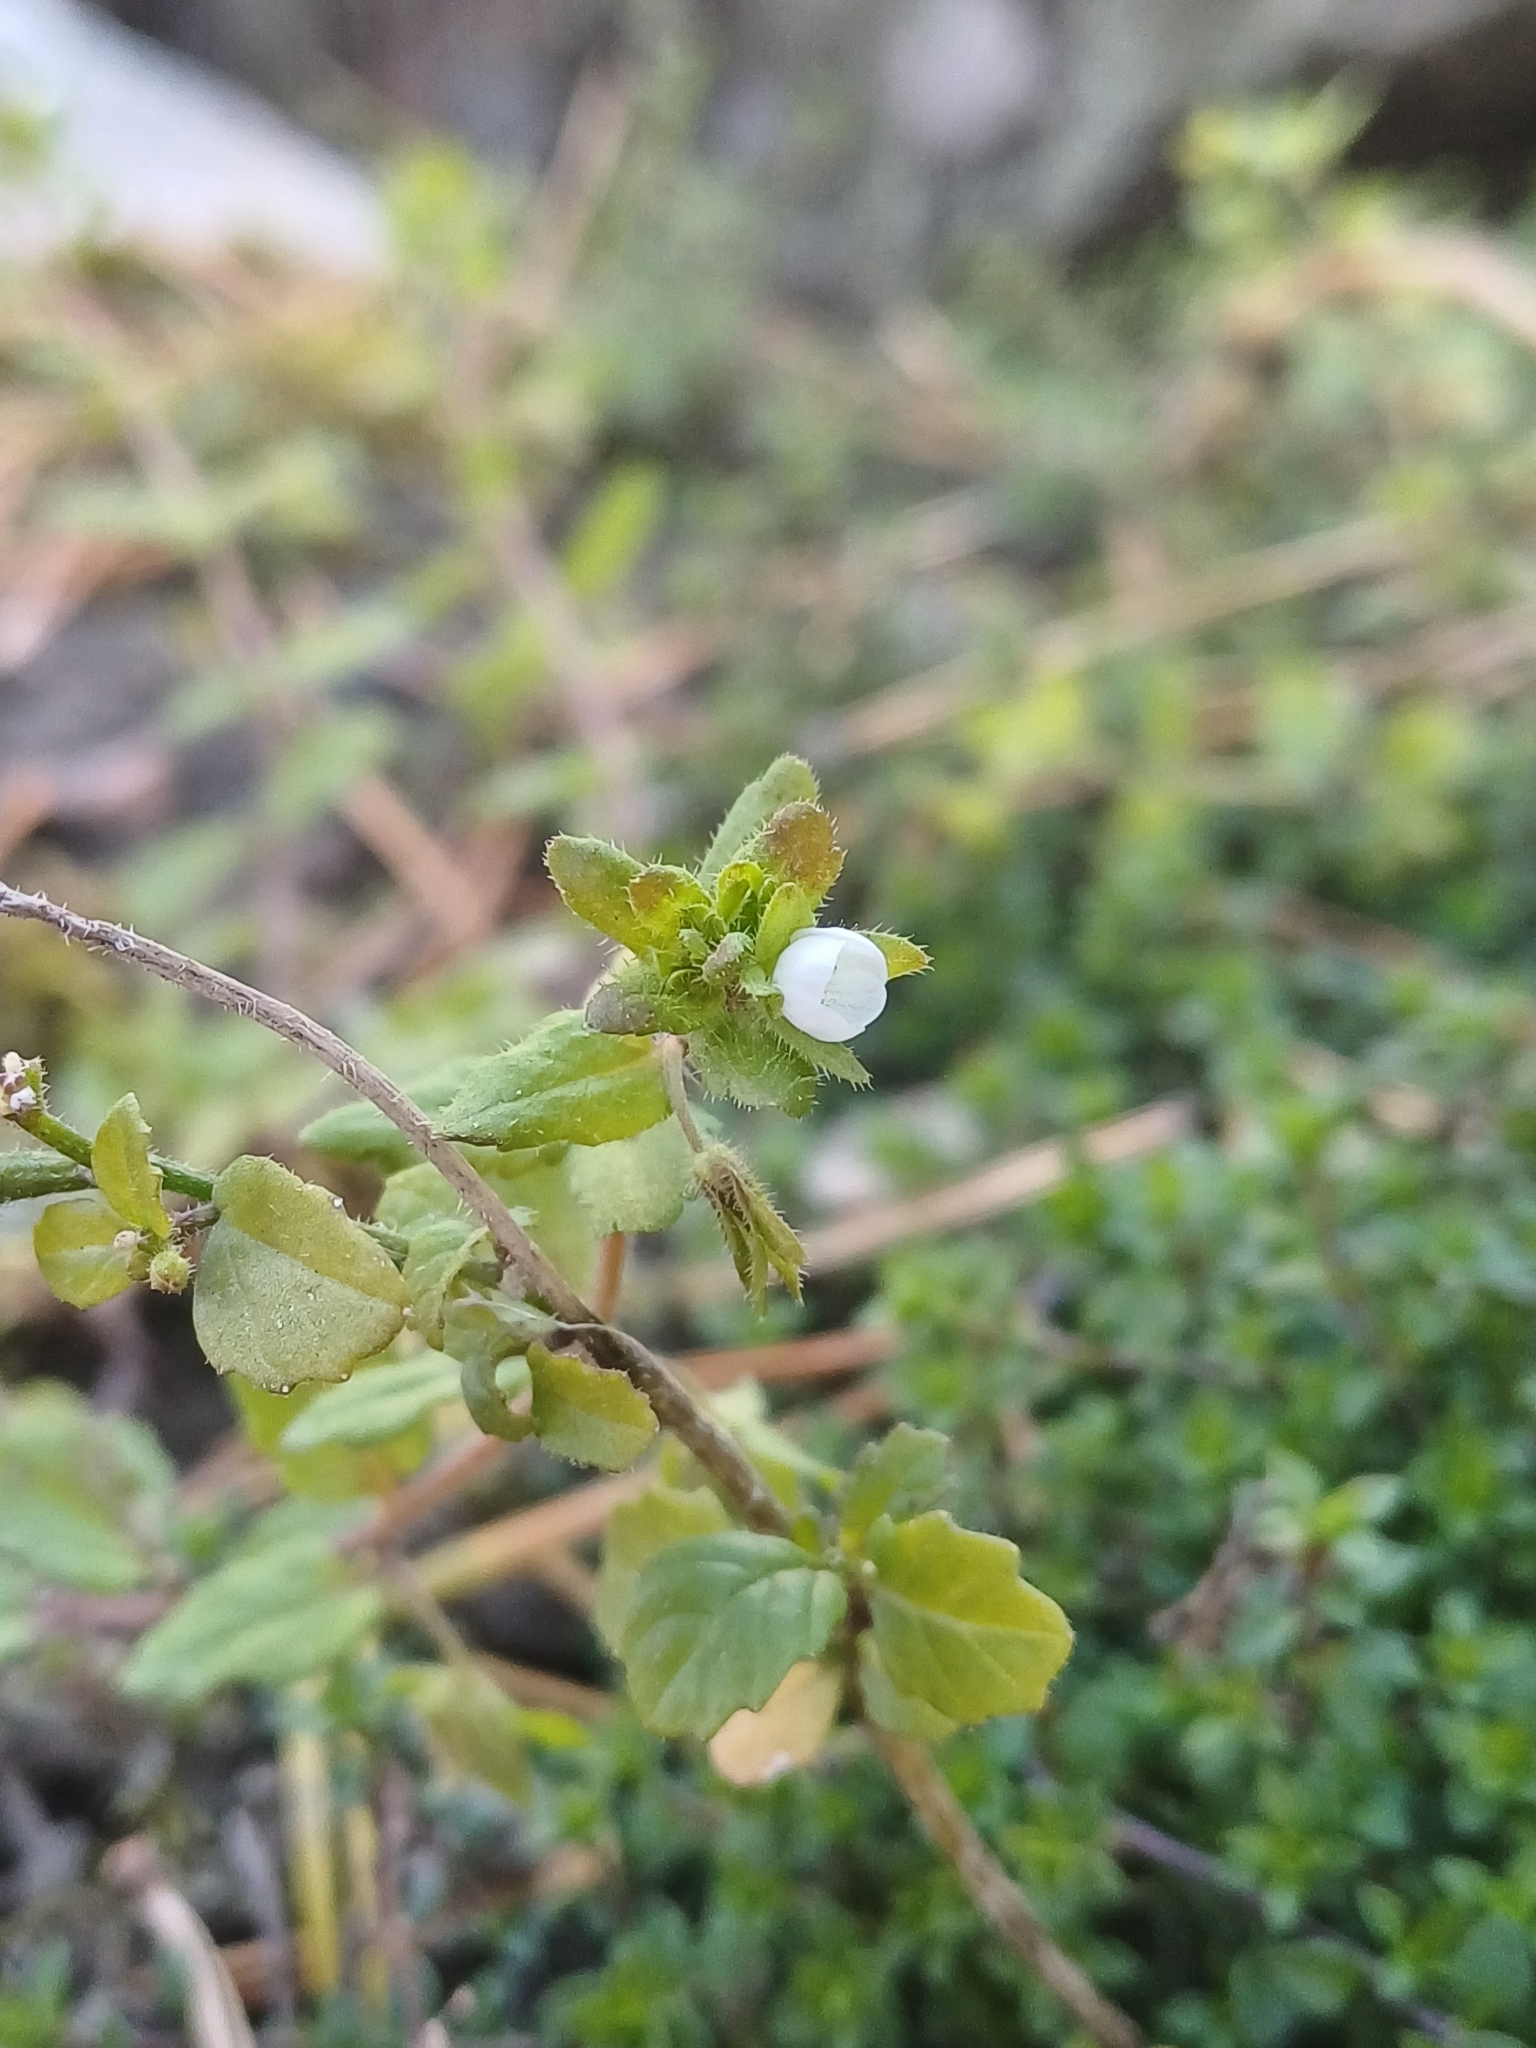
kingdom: Plantae
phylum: Tracheophyta
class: Magnoliopsida
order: Lamiales
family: Plantaginaceae
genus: Veronica
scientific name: Veronica agrestis
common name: Green field-speedwell
